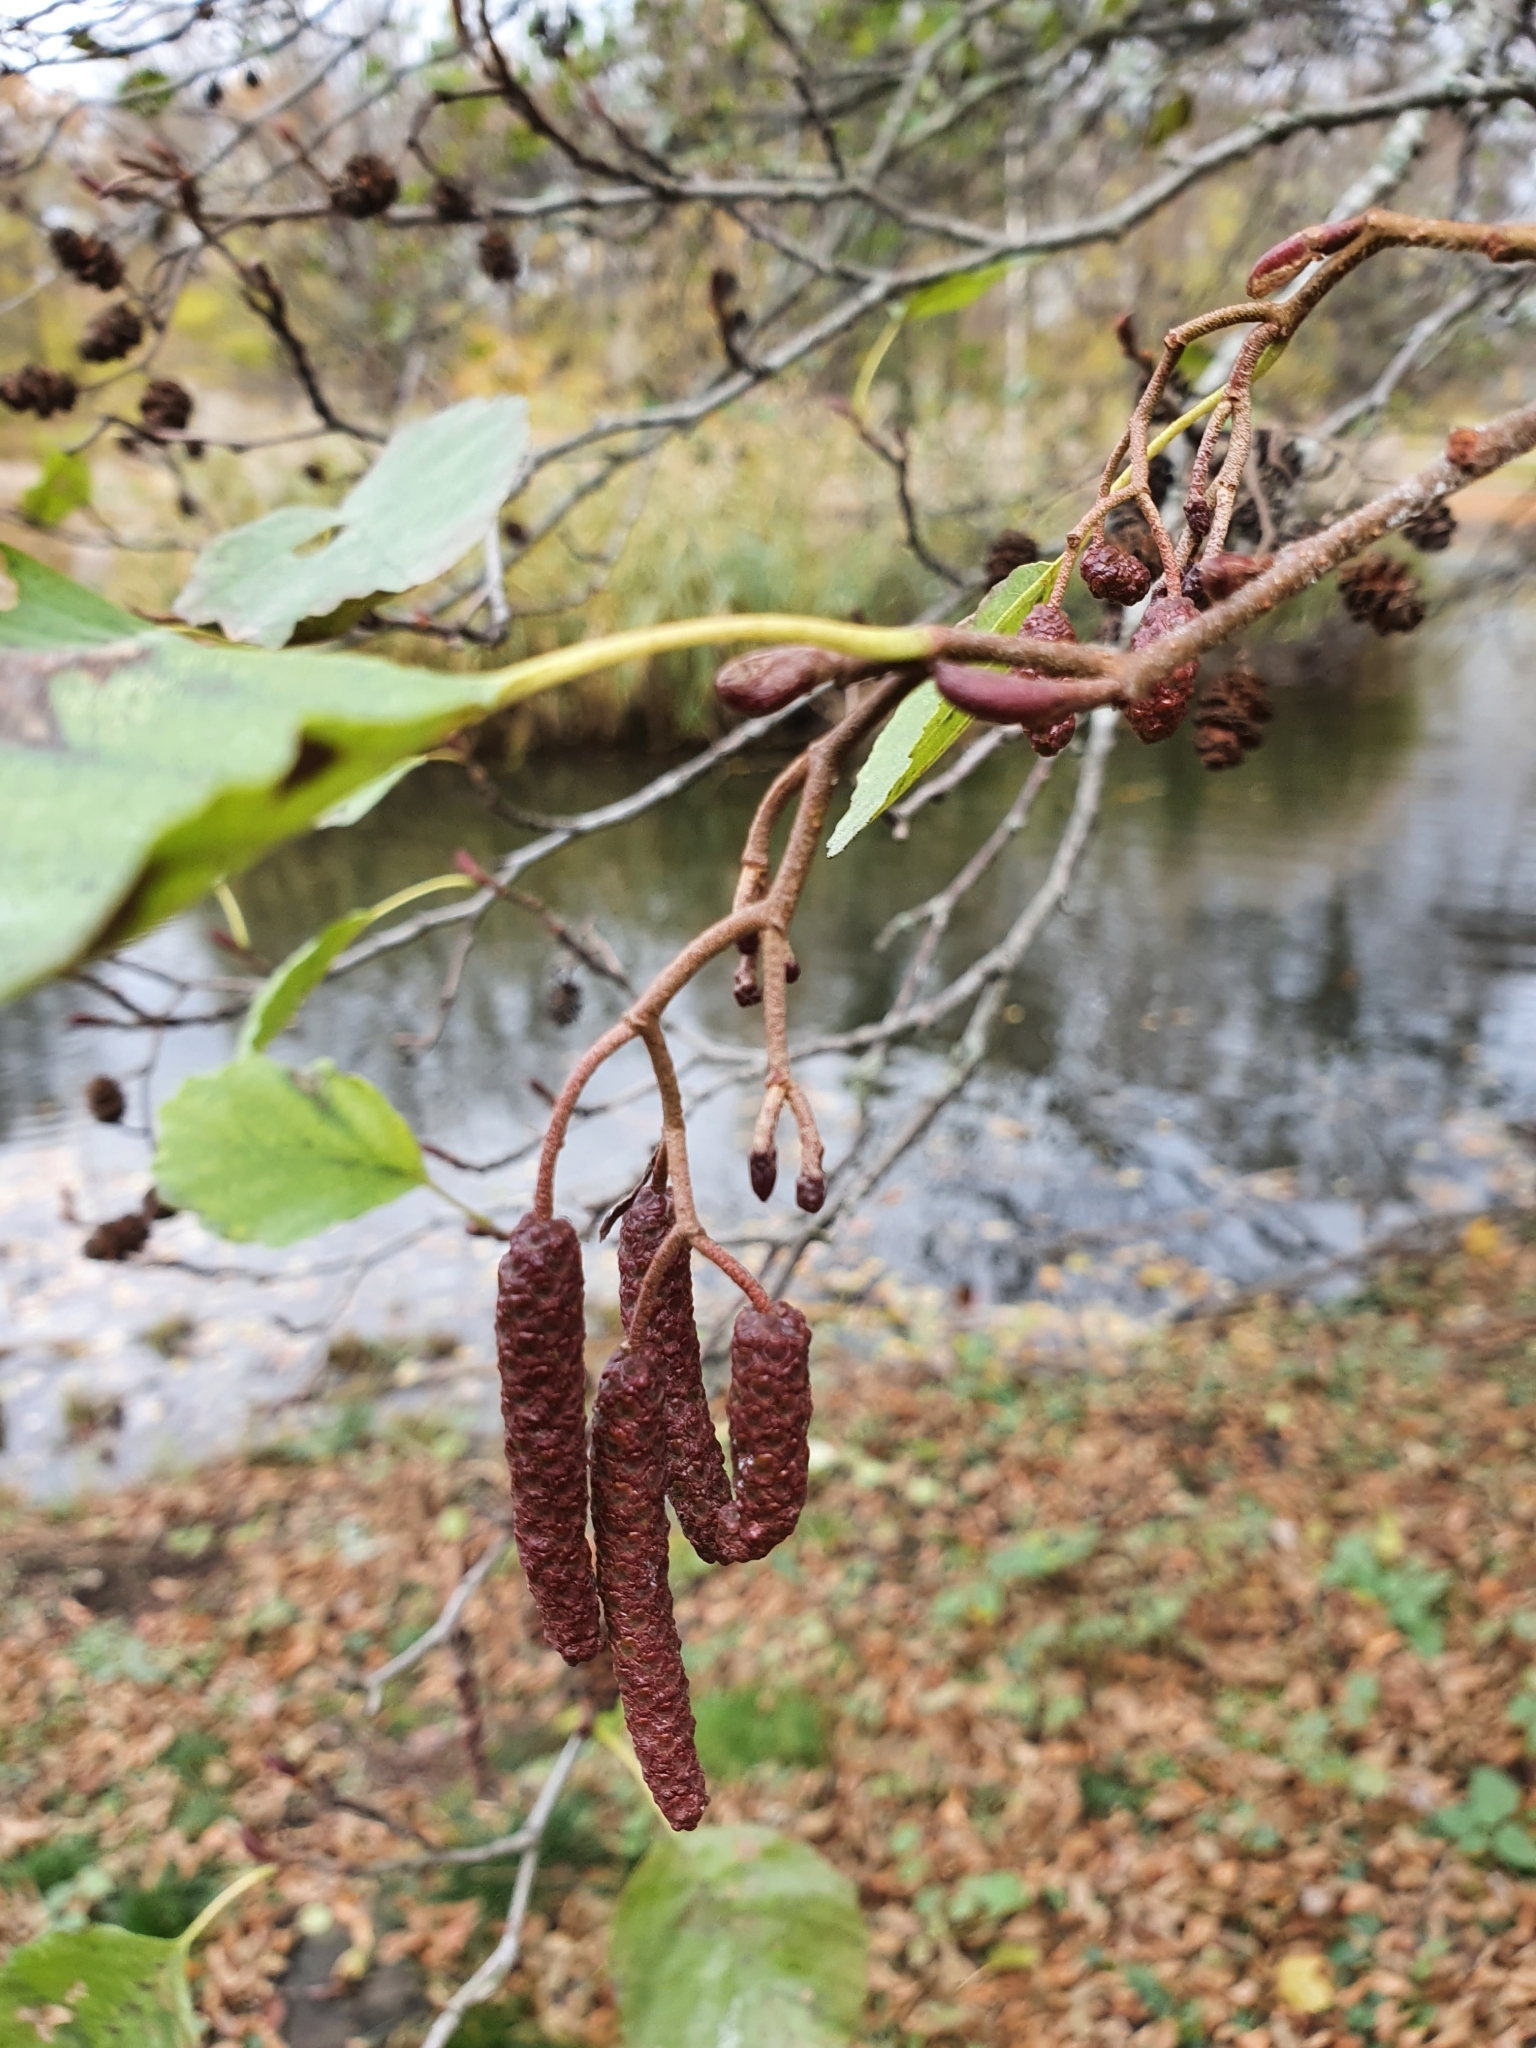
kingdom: Plantae
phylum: Tracheophyta
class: Magnoliopsida
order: Fagales
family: Betulaceae
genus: Alnus
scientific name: Alnus glutinosa
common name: Black alder
